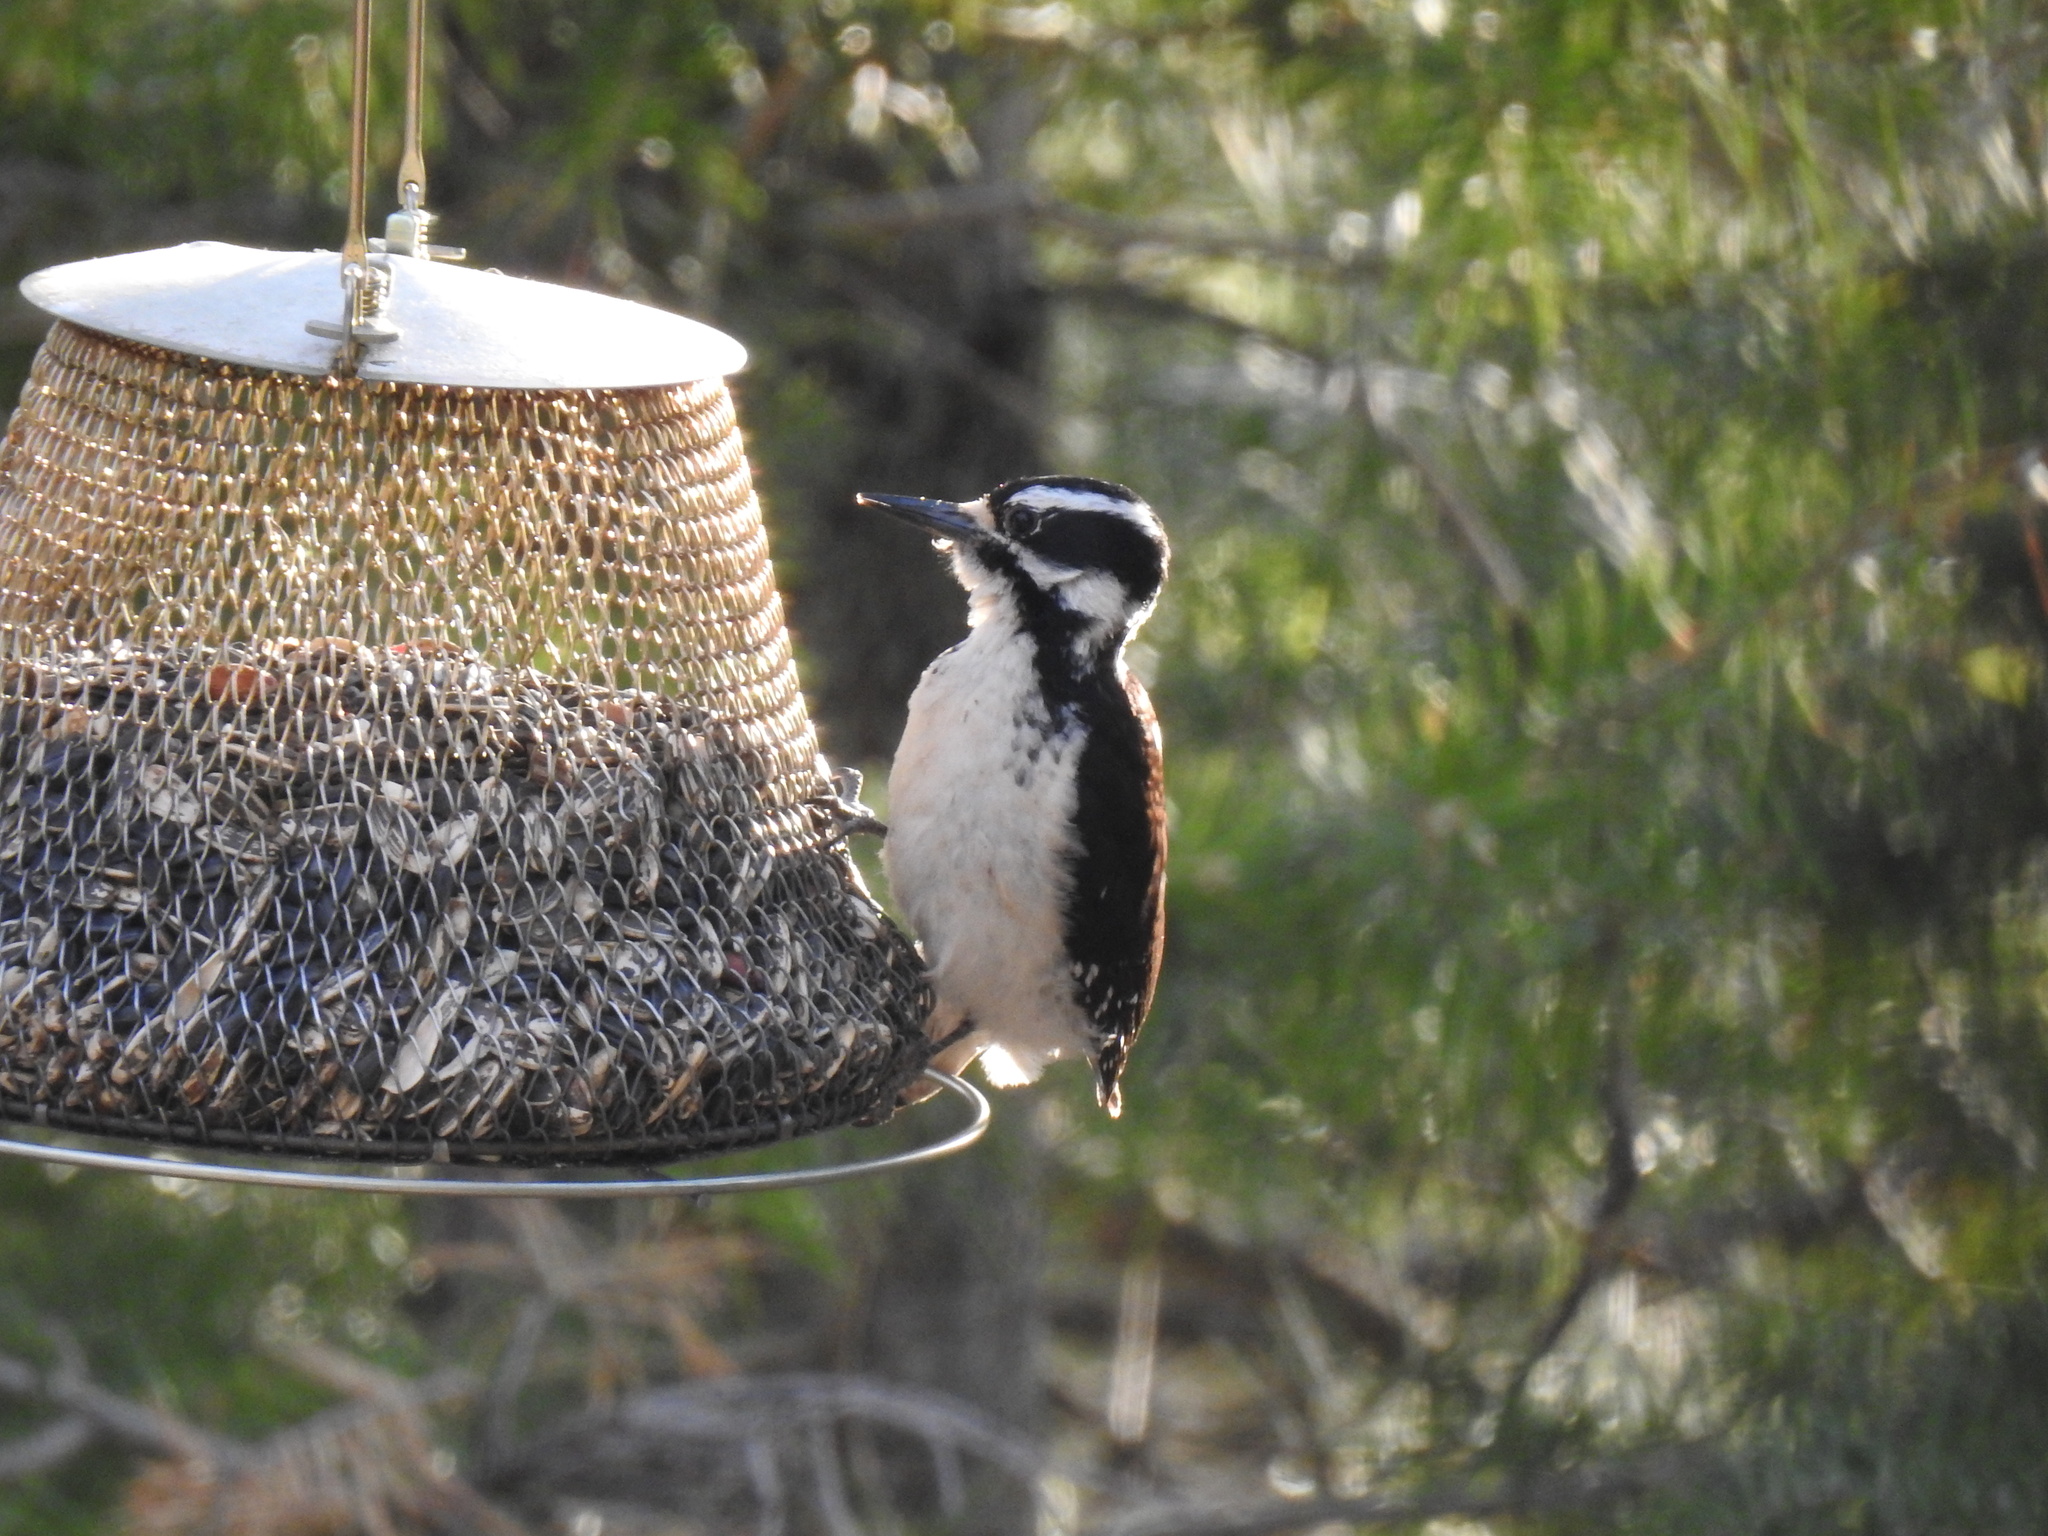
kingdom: Animalia
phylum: Chordata
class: Aves
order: Piciformes
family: Picidae
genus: Leuconotopicus
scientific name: Leuconotopicus villosus
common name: Hairy woodpecker
